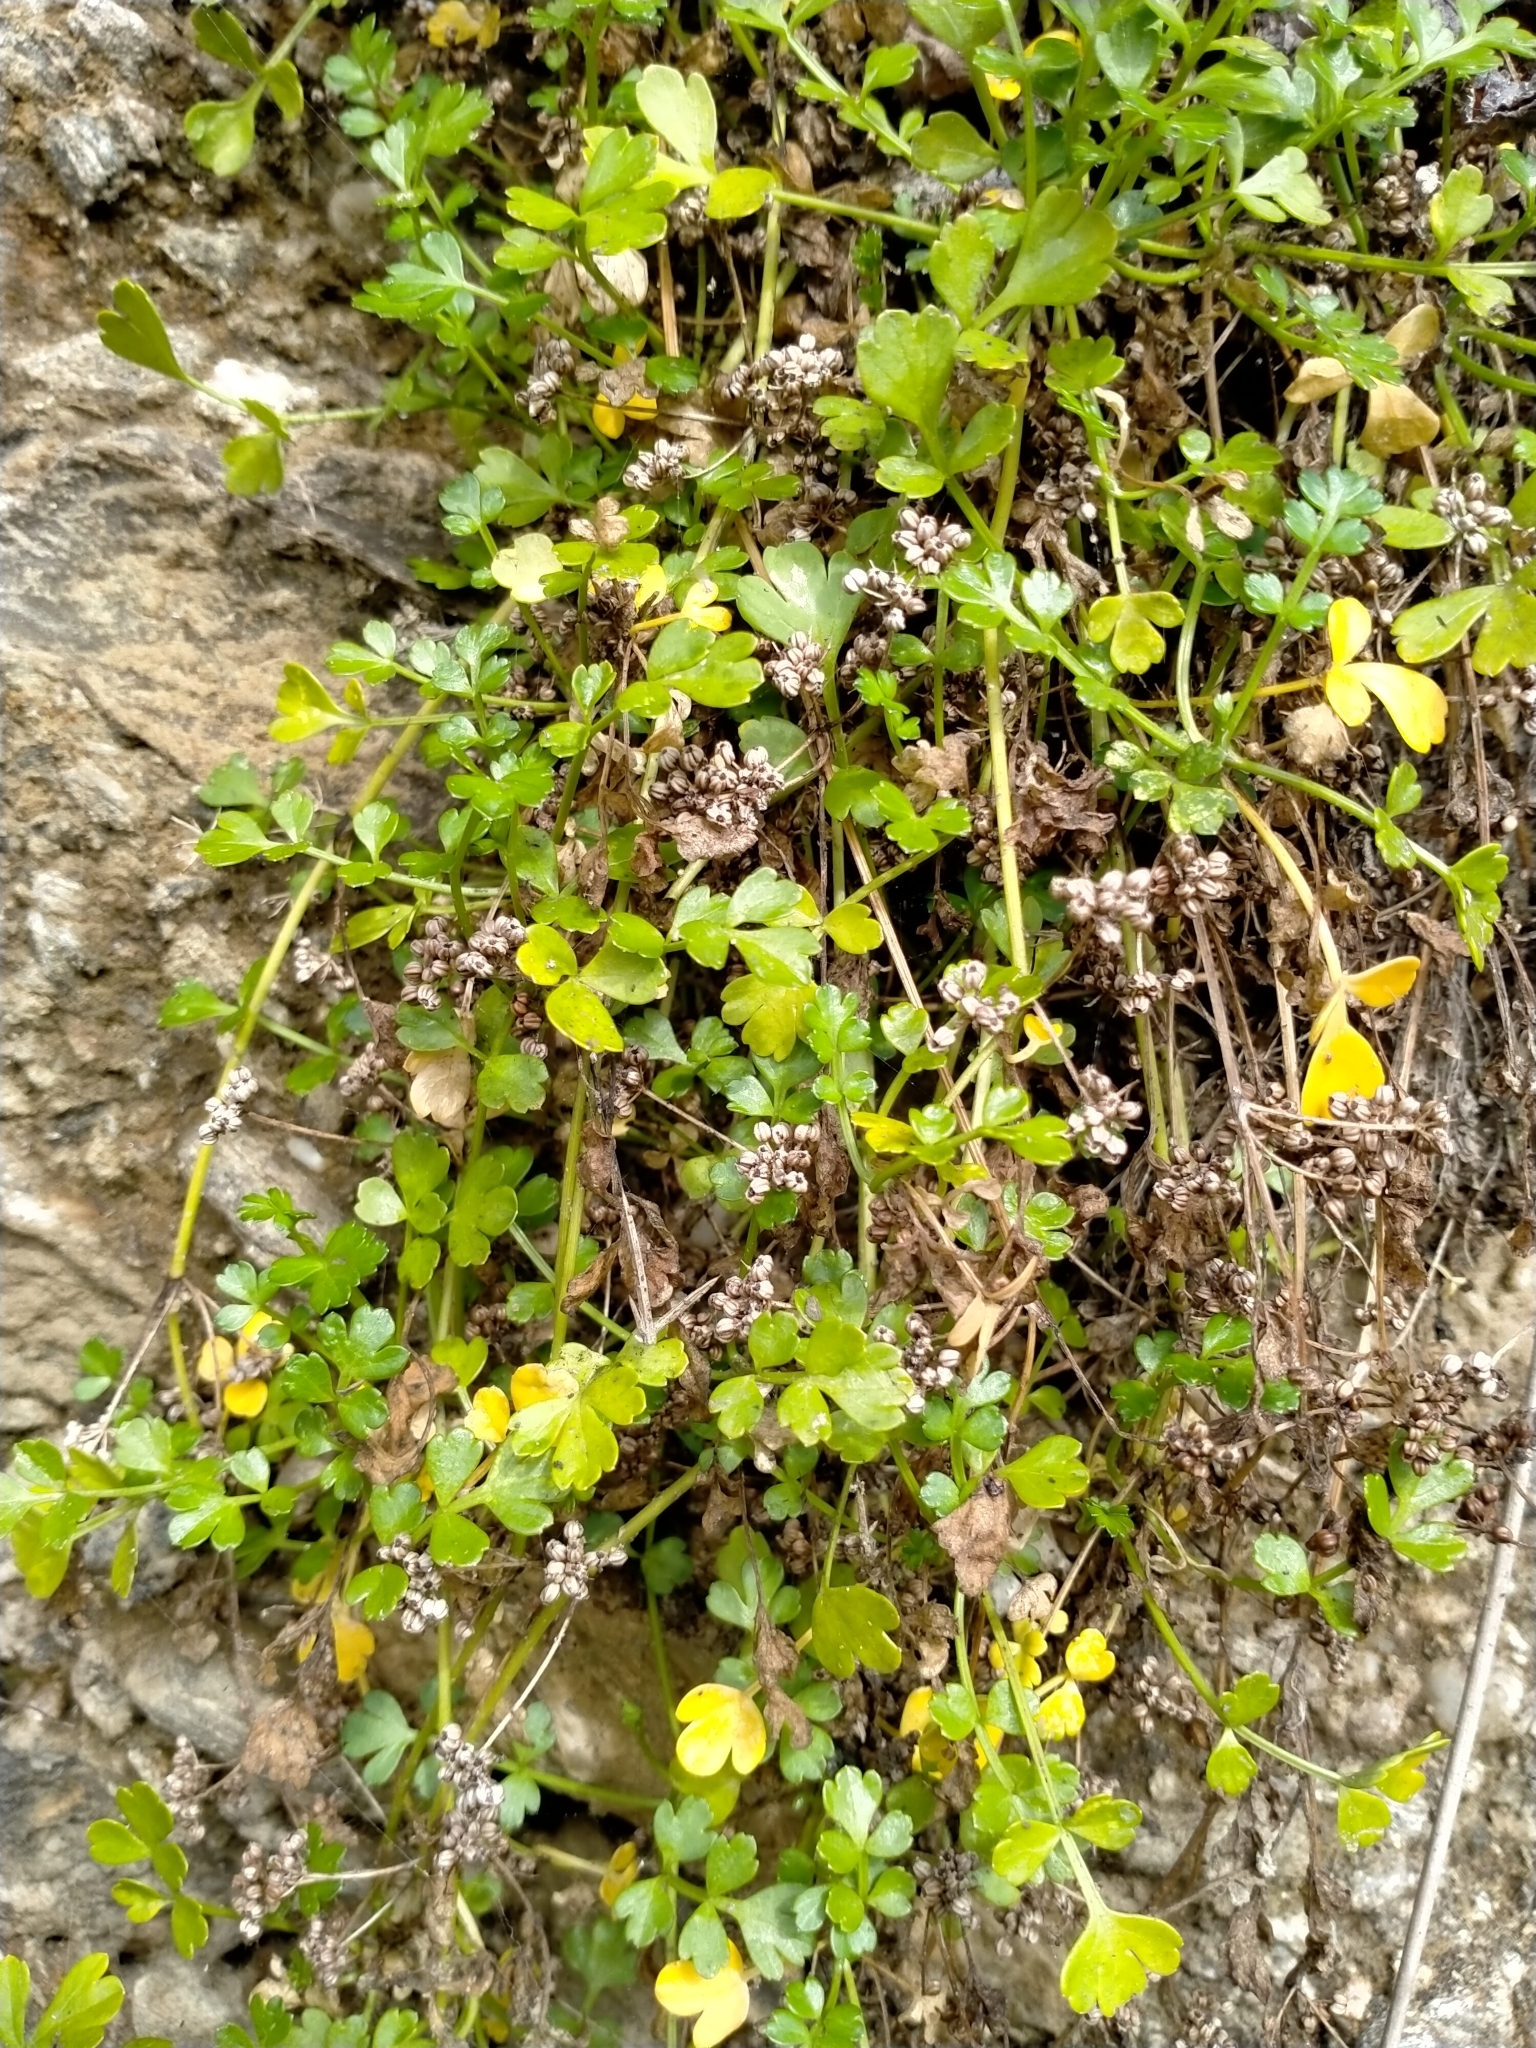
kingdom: Plantae
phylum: Tracheophyta
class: Magnoliopsida
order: Apiales
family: Apiaceae
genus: Apium
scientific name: Apium prostratum
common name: Prostrate marshwort
